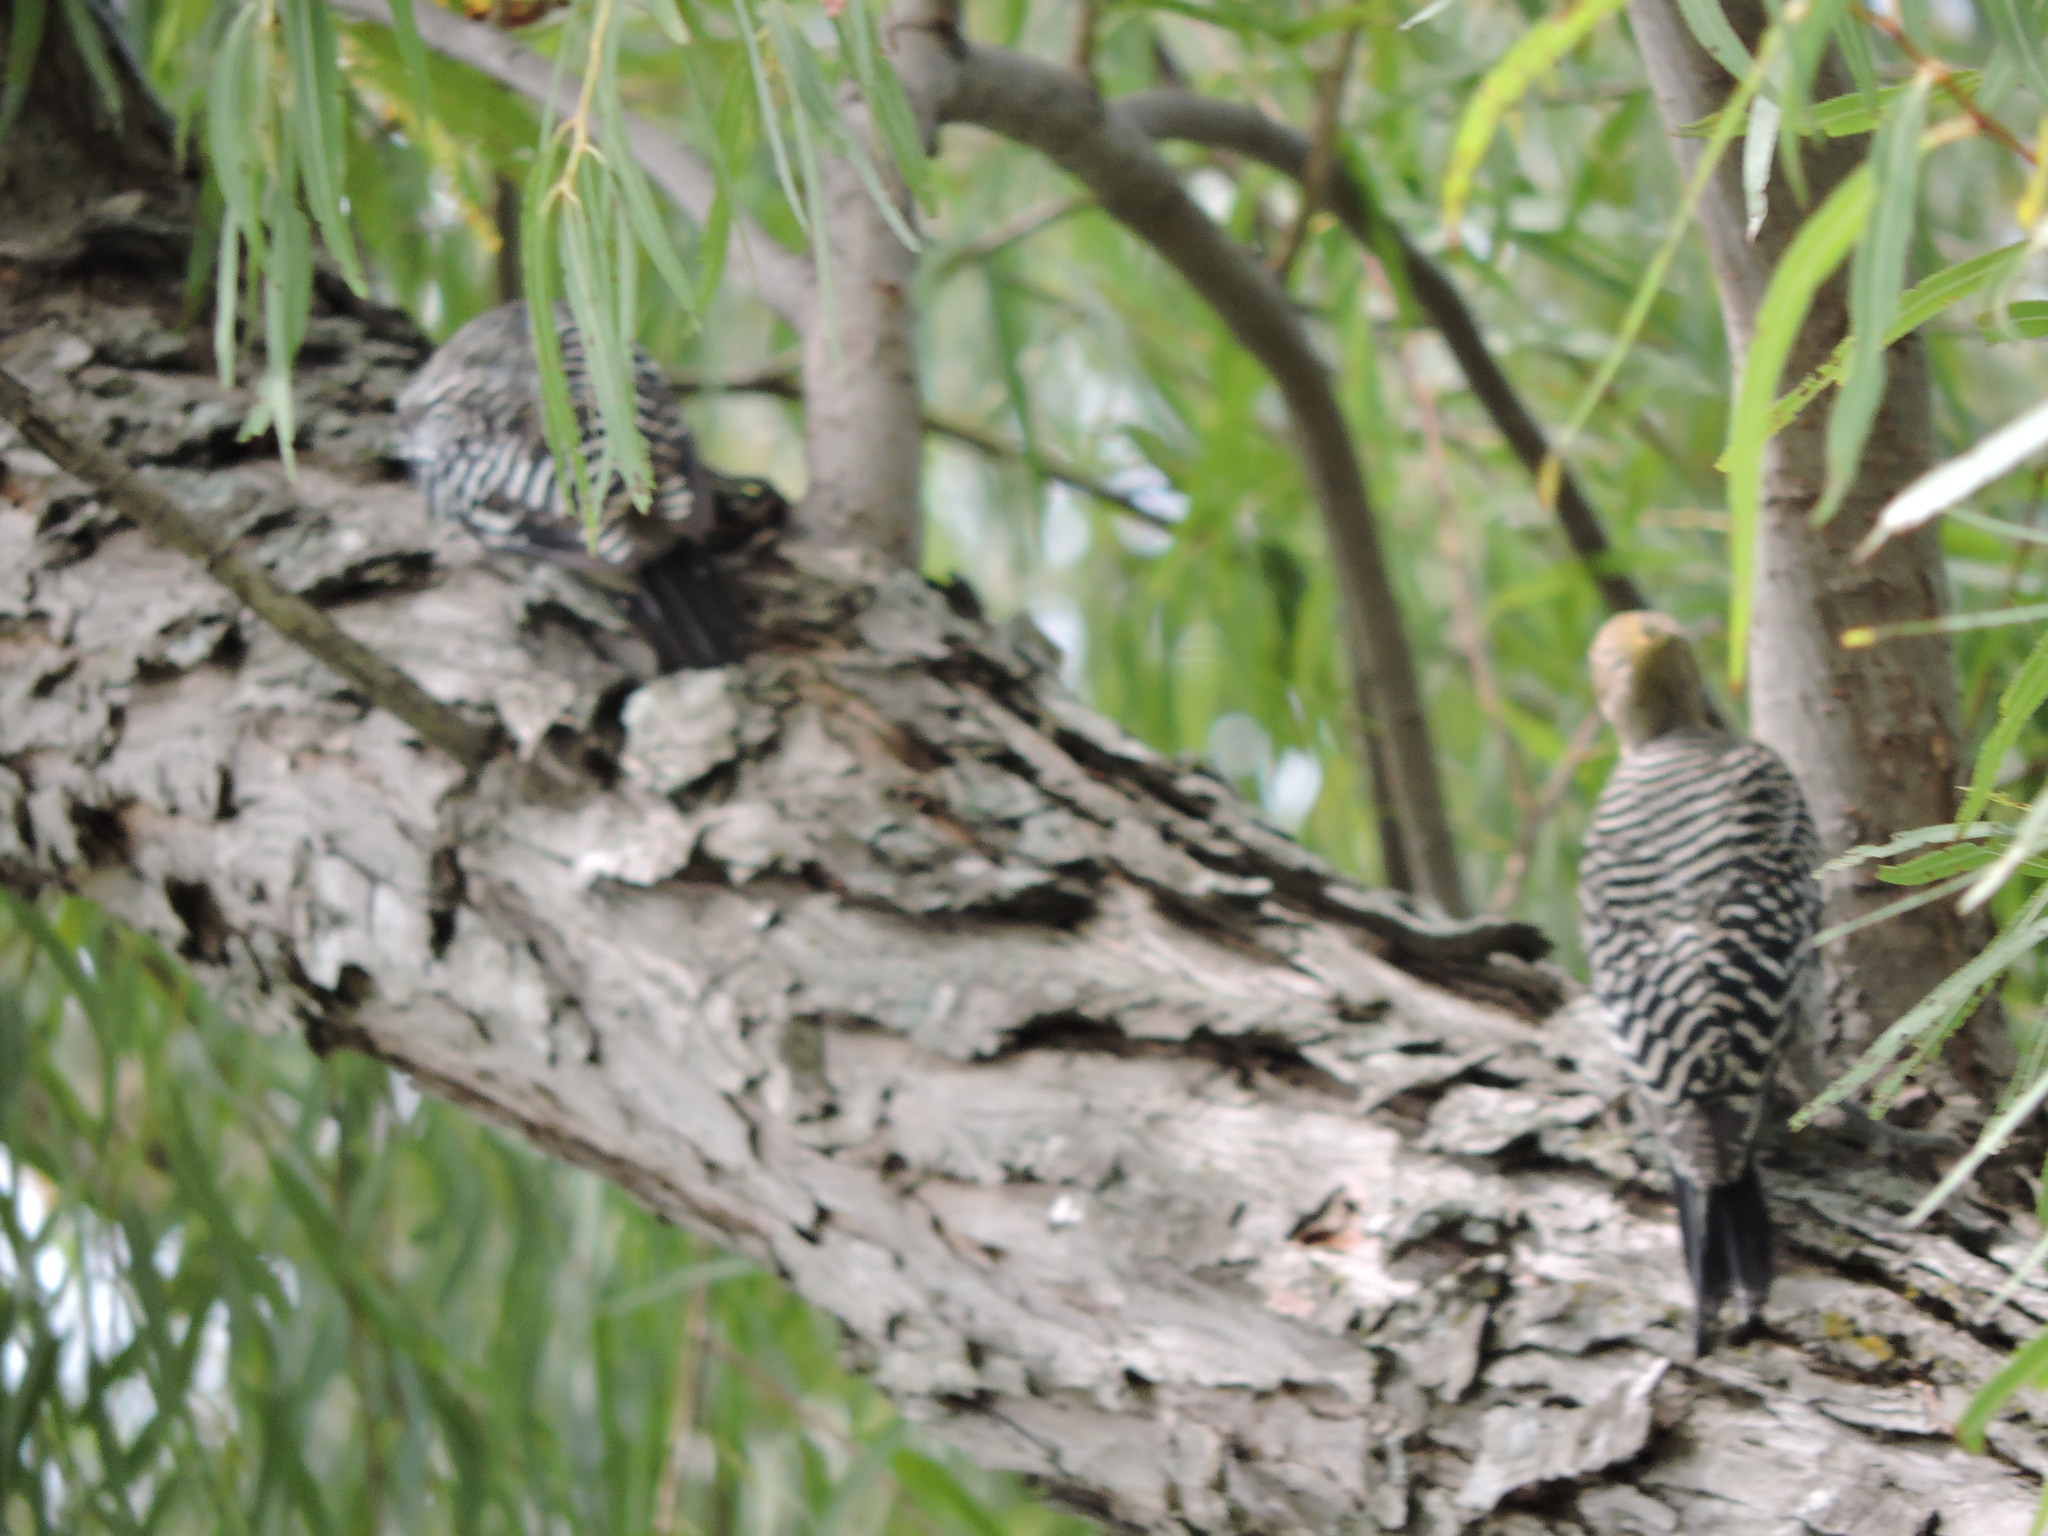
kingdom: Animalia
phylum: Chordata
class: Aves
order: Piciformes
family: Picidae
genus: Melanerpes
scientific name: Melanerpes aurifrons
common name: Golden-fronted woodpecker
